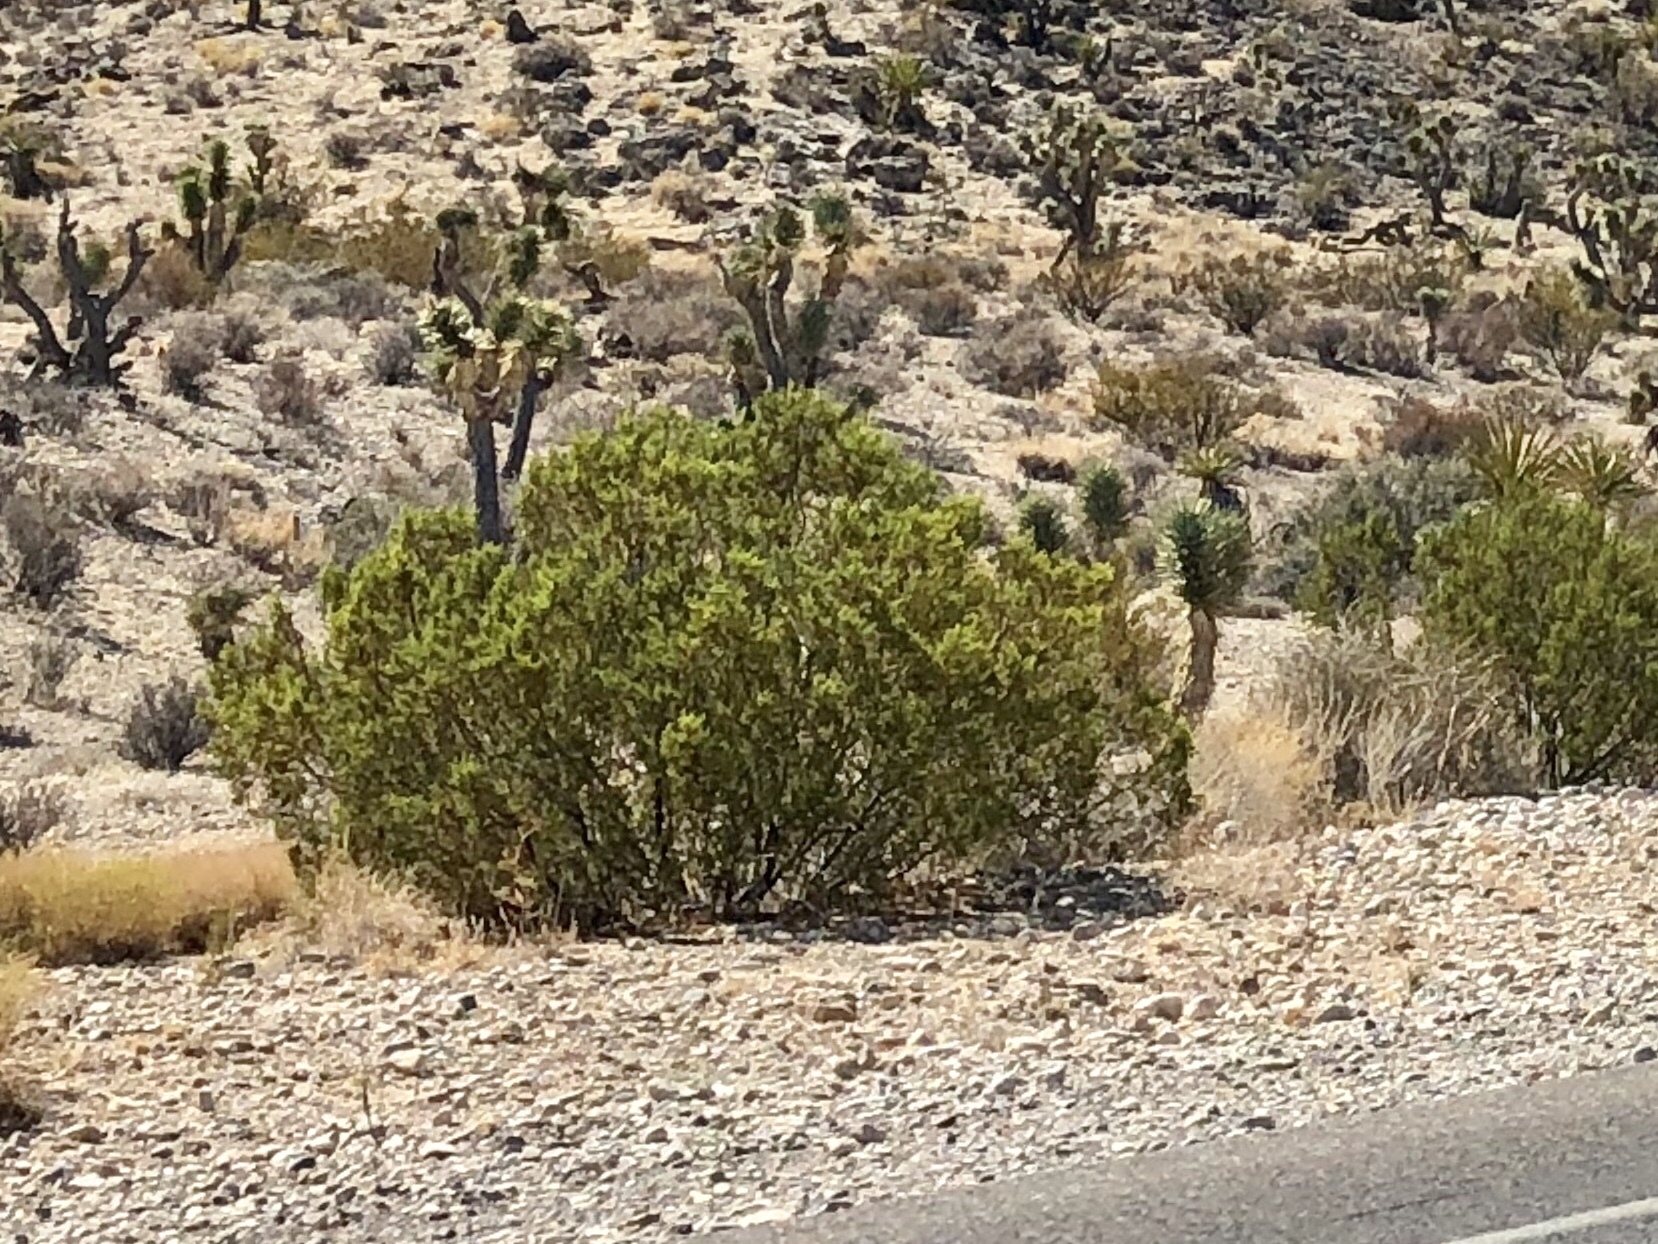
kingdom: Plantae
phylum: Tracheophyta
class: Magnoliopsida
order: Zygophyllales
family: Zygophyllaceae
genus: Larrea
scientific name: Larrea tridentata
